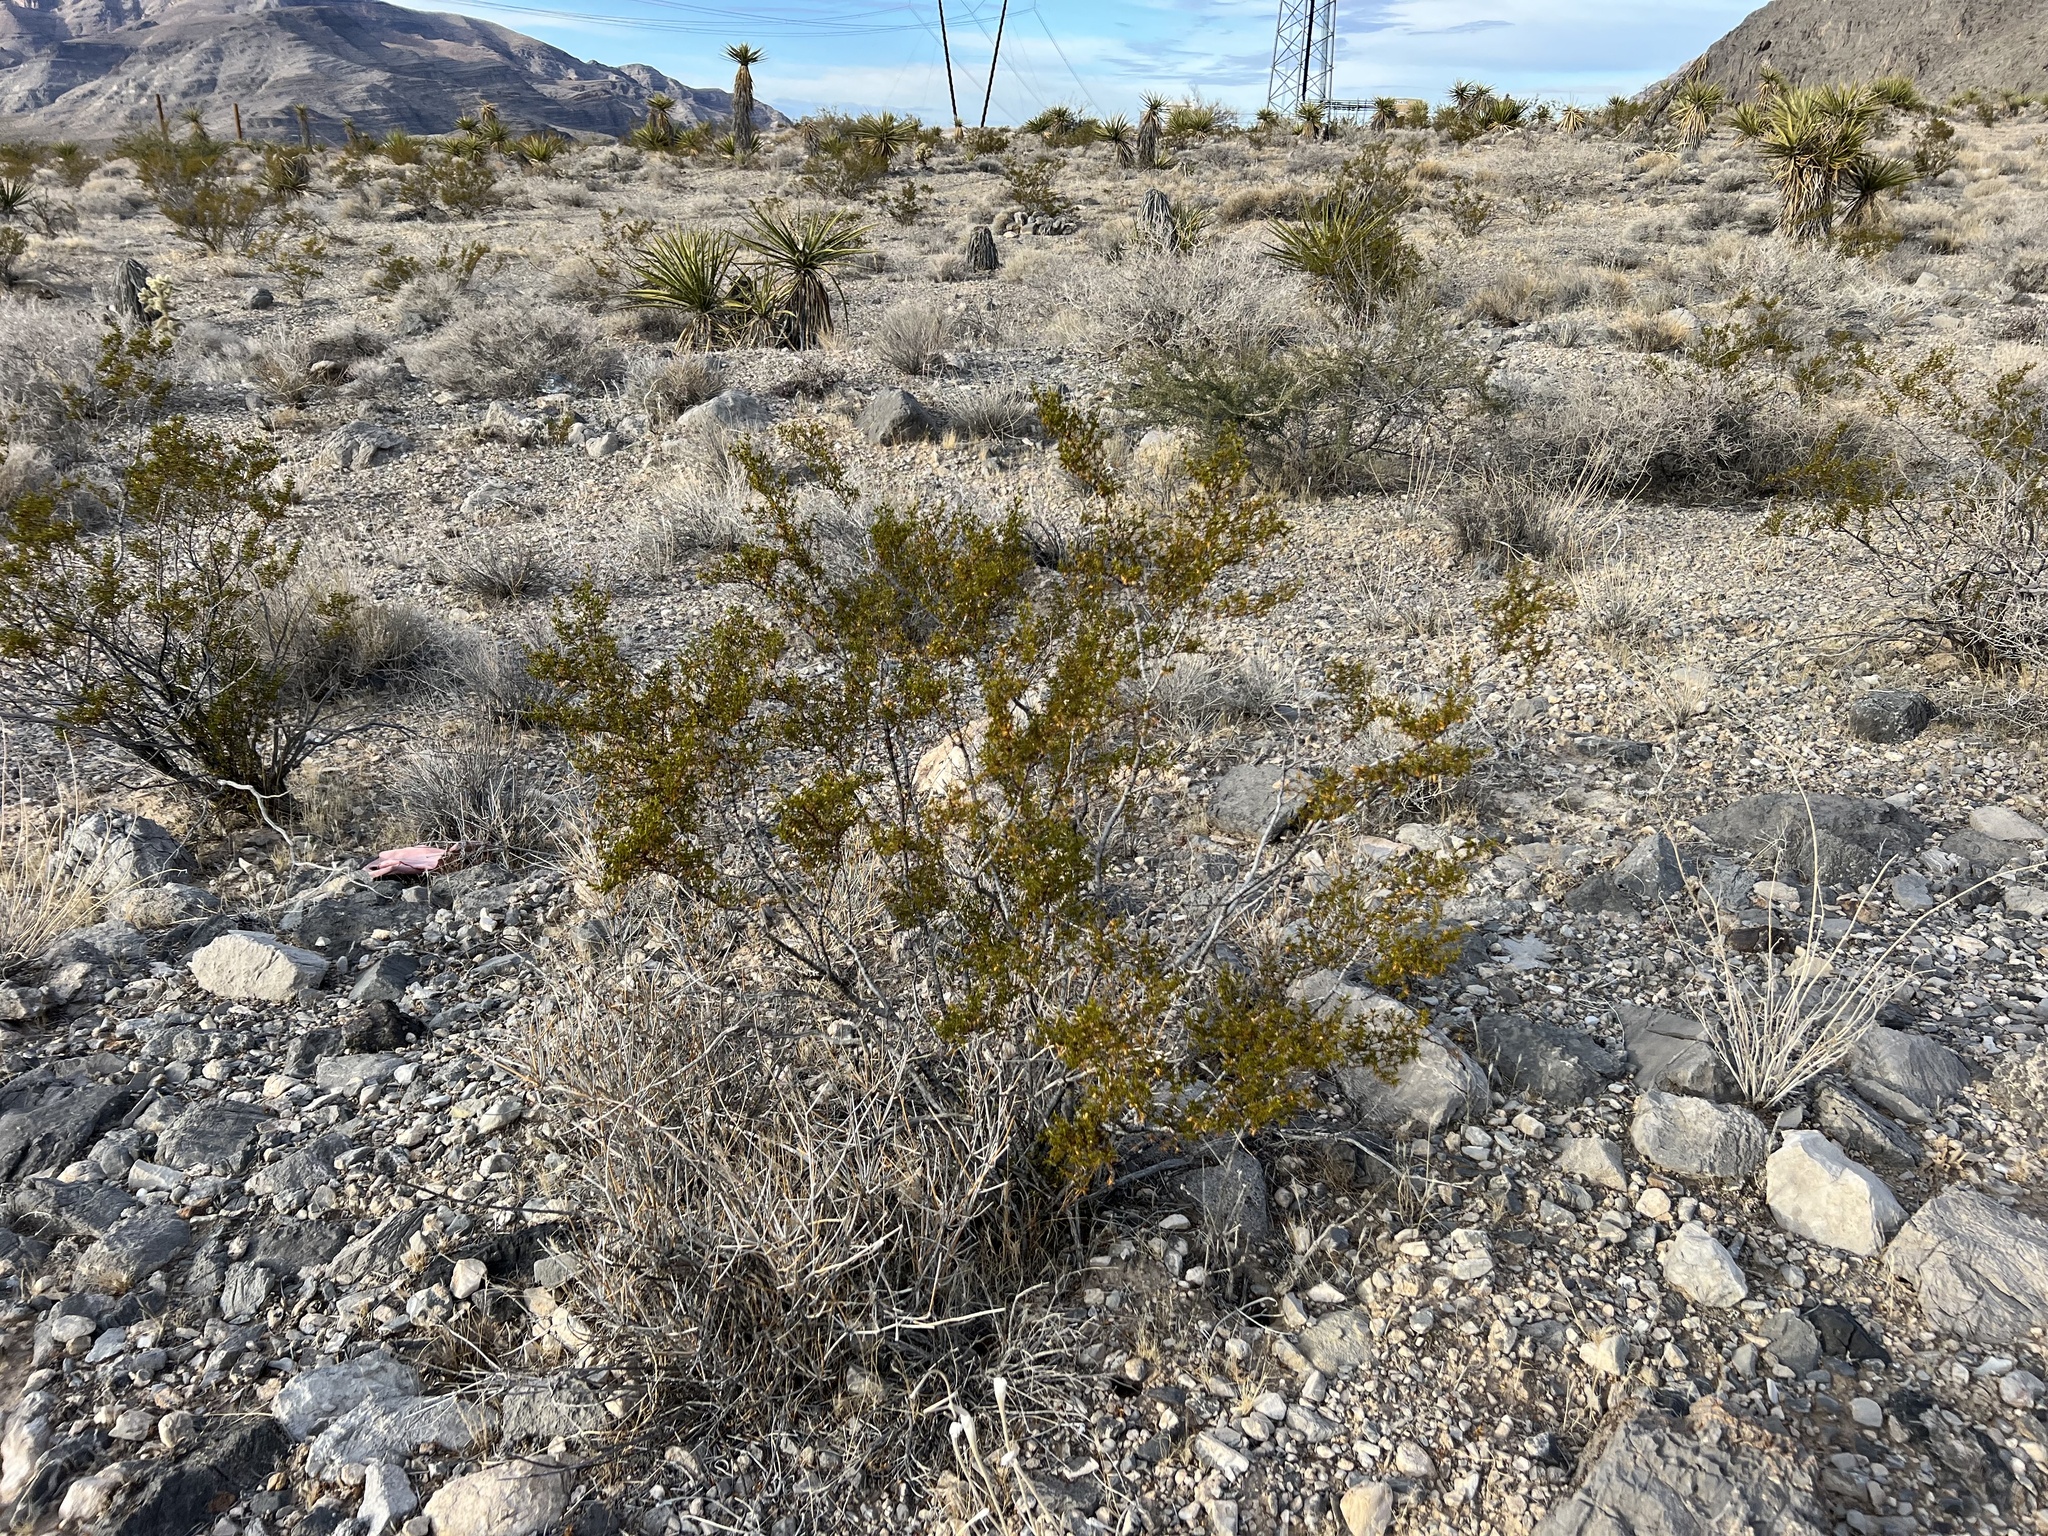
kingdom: Plantae
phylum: Tracheophyta
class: Magnoliopsida
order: Zygophyllales
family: Zygophyllaceae
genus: Larrea
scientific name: Larrea tridentata
